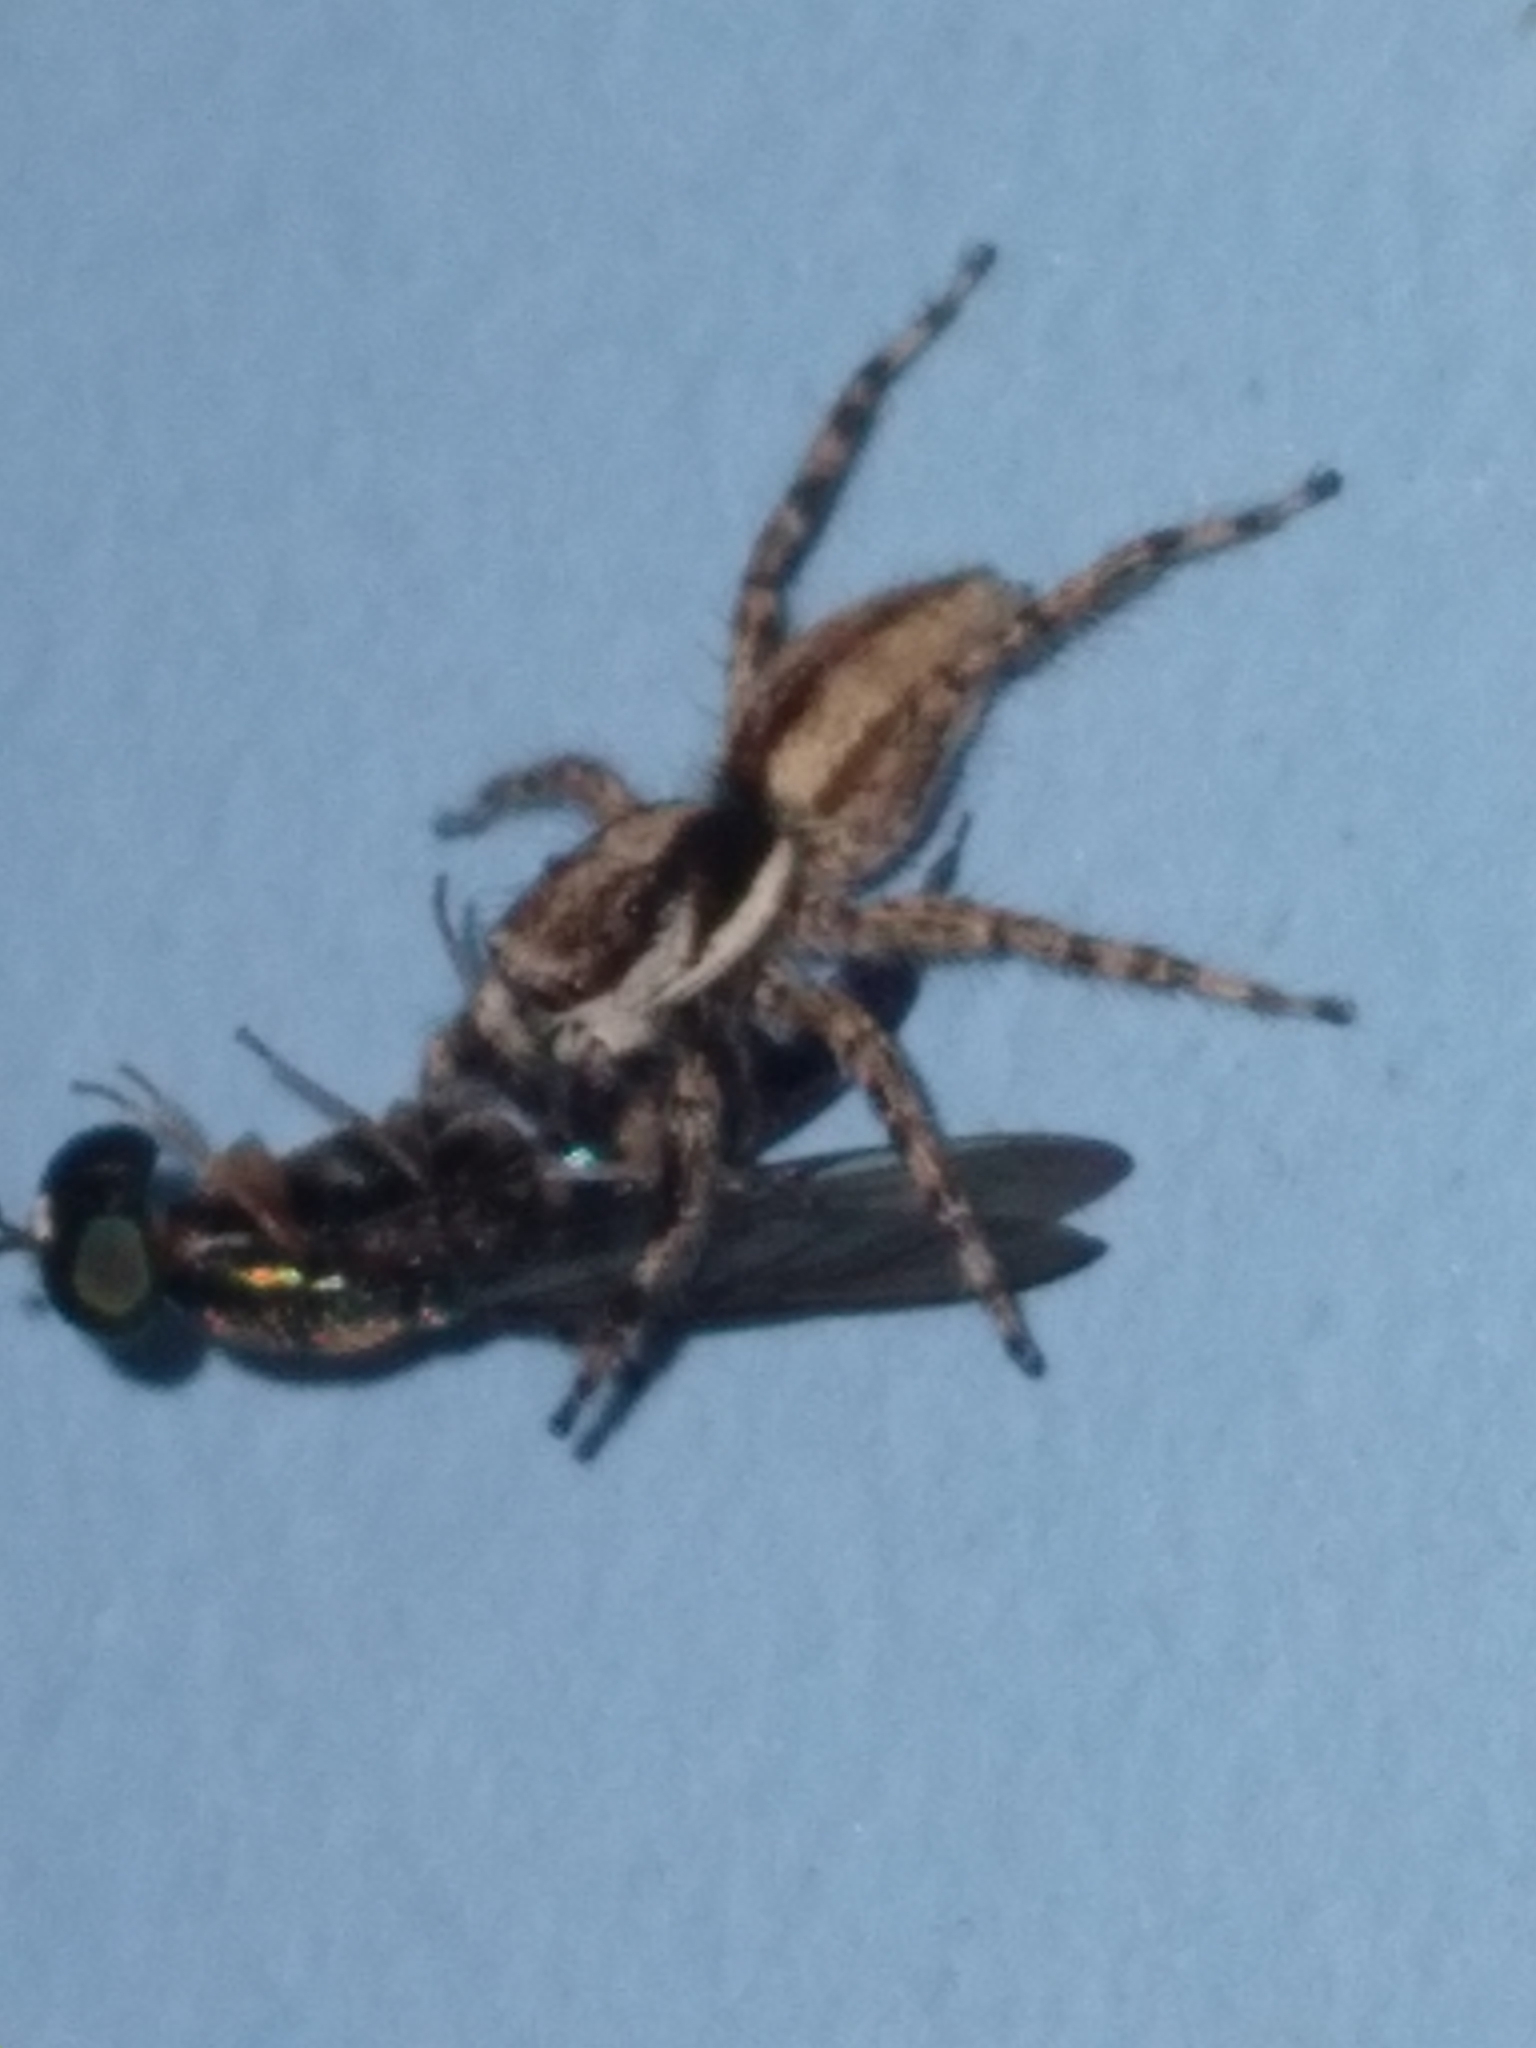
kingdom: Animalia
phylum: Arthropoda
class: Arachnida
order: Araneae
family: Salticidae
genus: Menemerus
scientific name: Menemerus bivittatus
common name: Gray wall jumper
